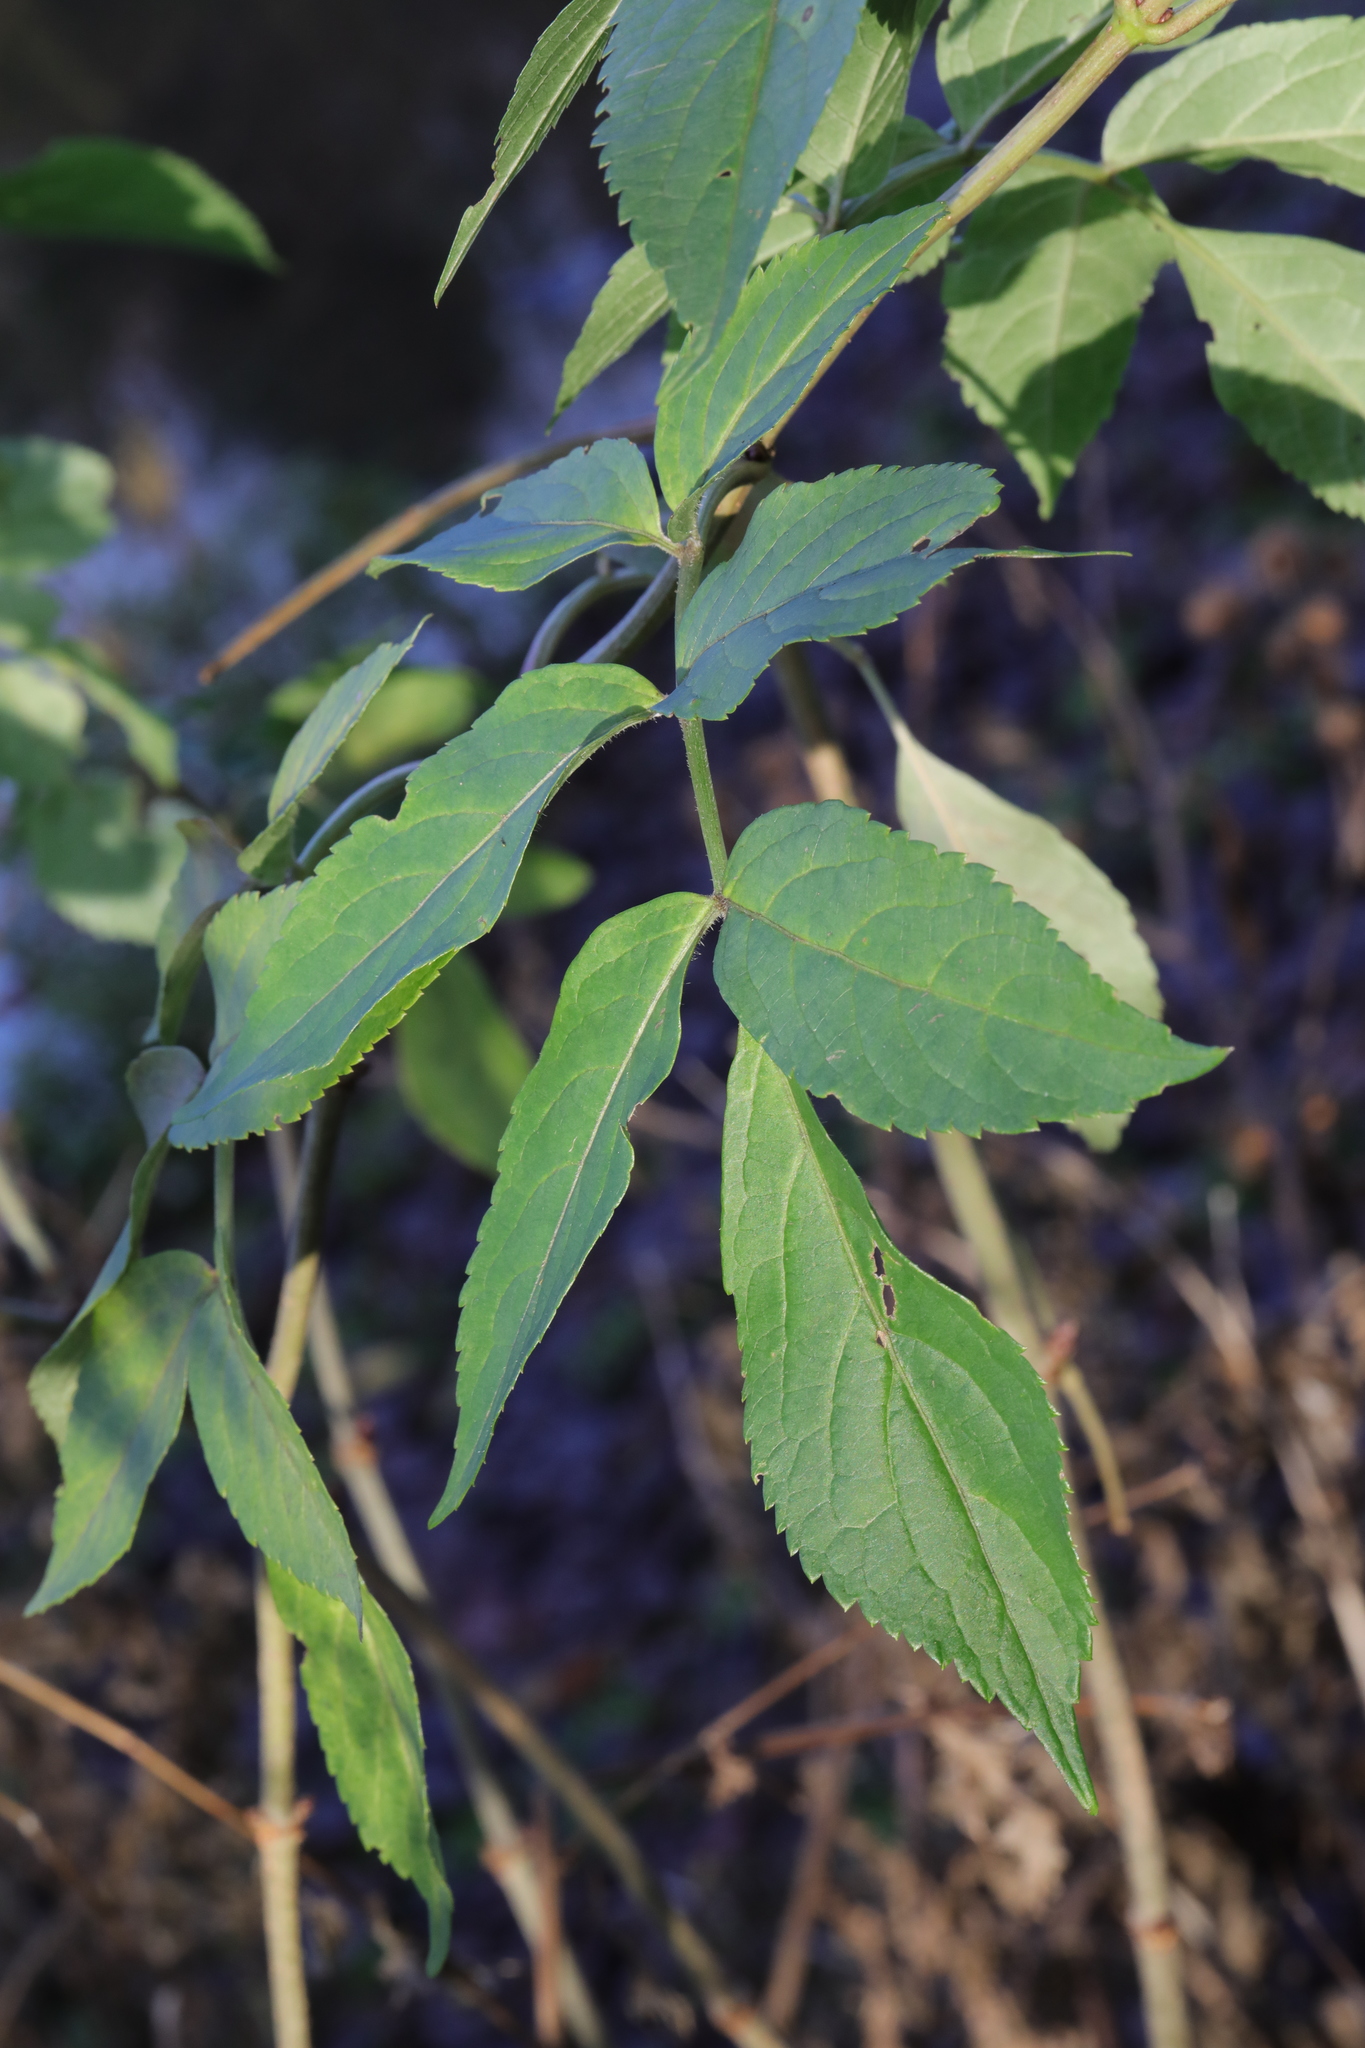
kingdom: Plantae
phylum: Tracheophyta
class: Magnoliopsida
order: Dipsacales
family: Viburnaceae
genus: Sambucus
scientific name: Sambucus nigra
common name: Elder
